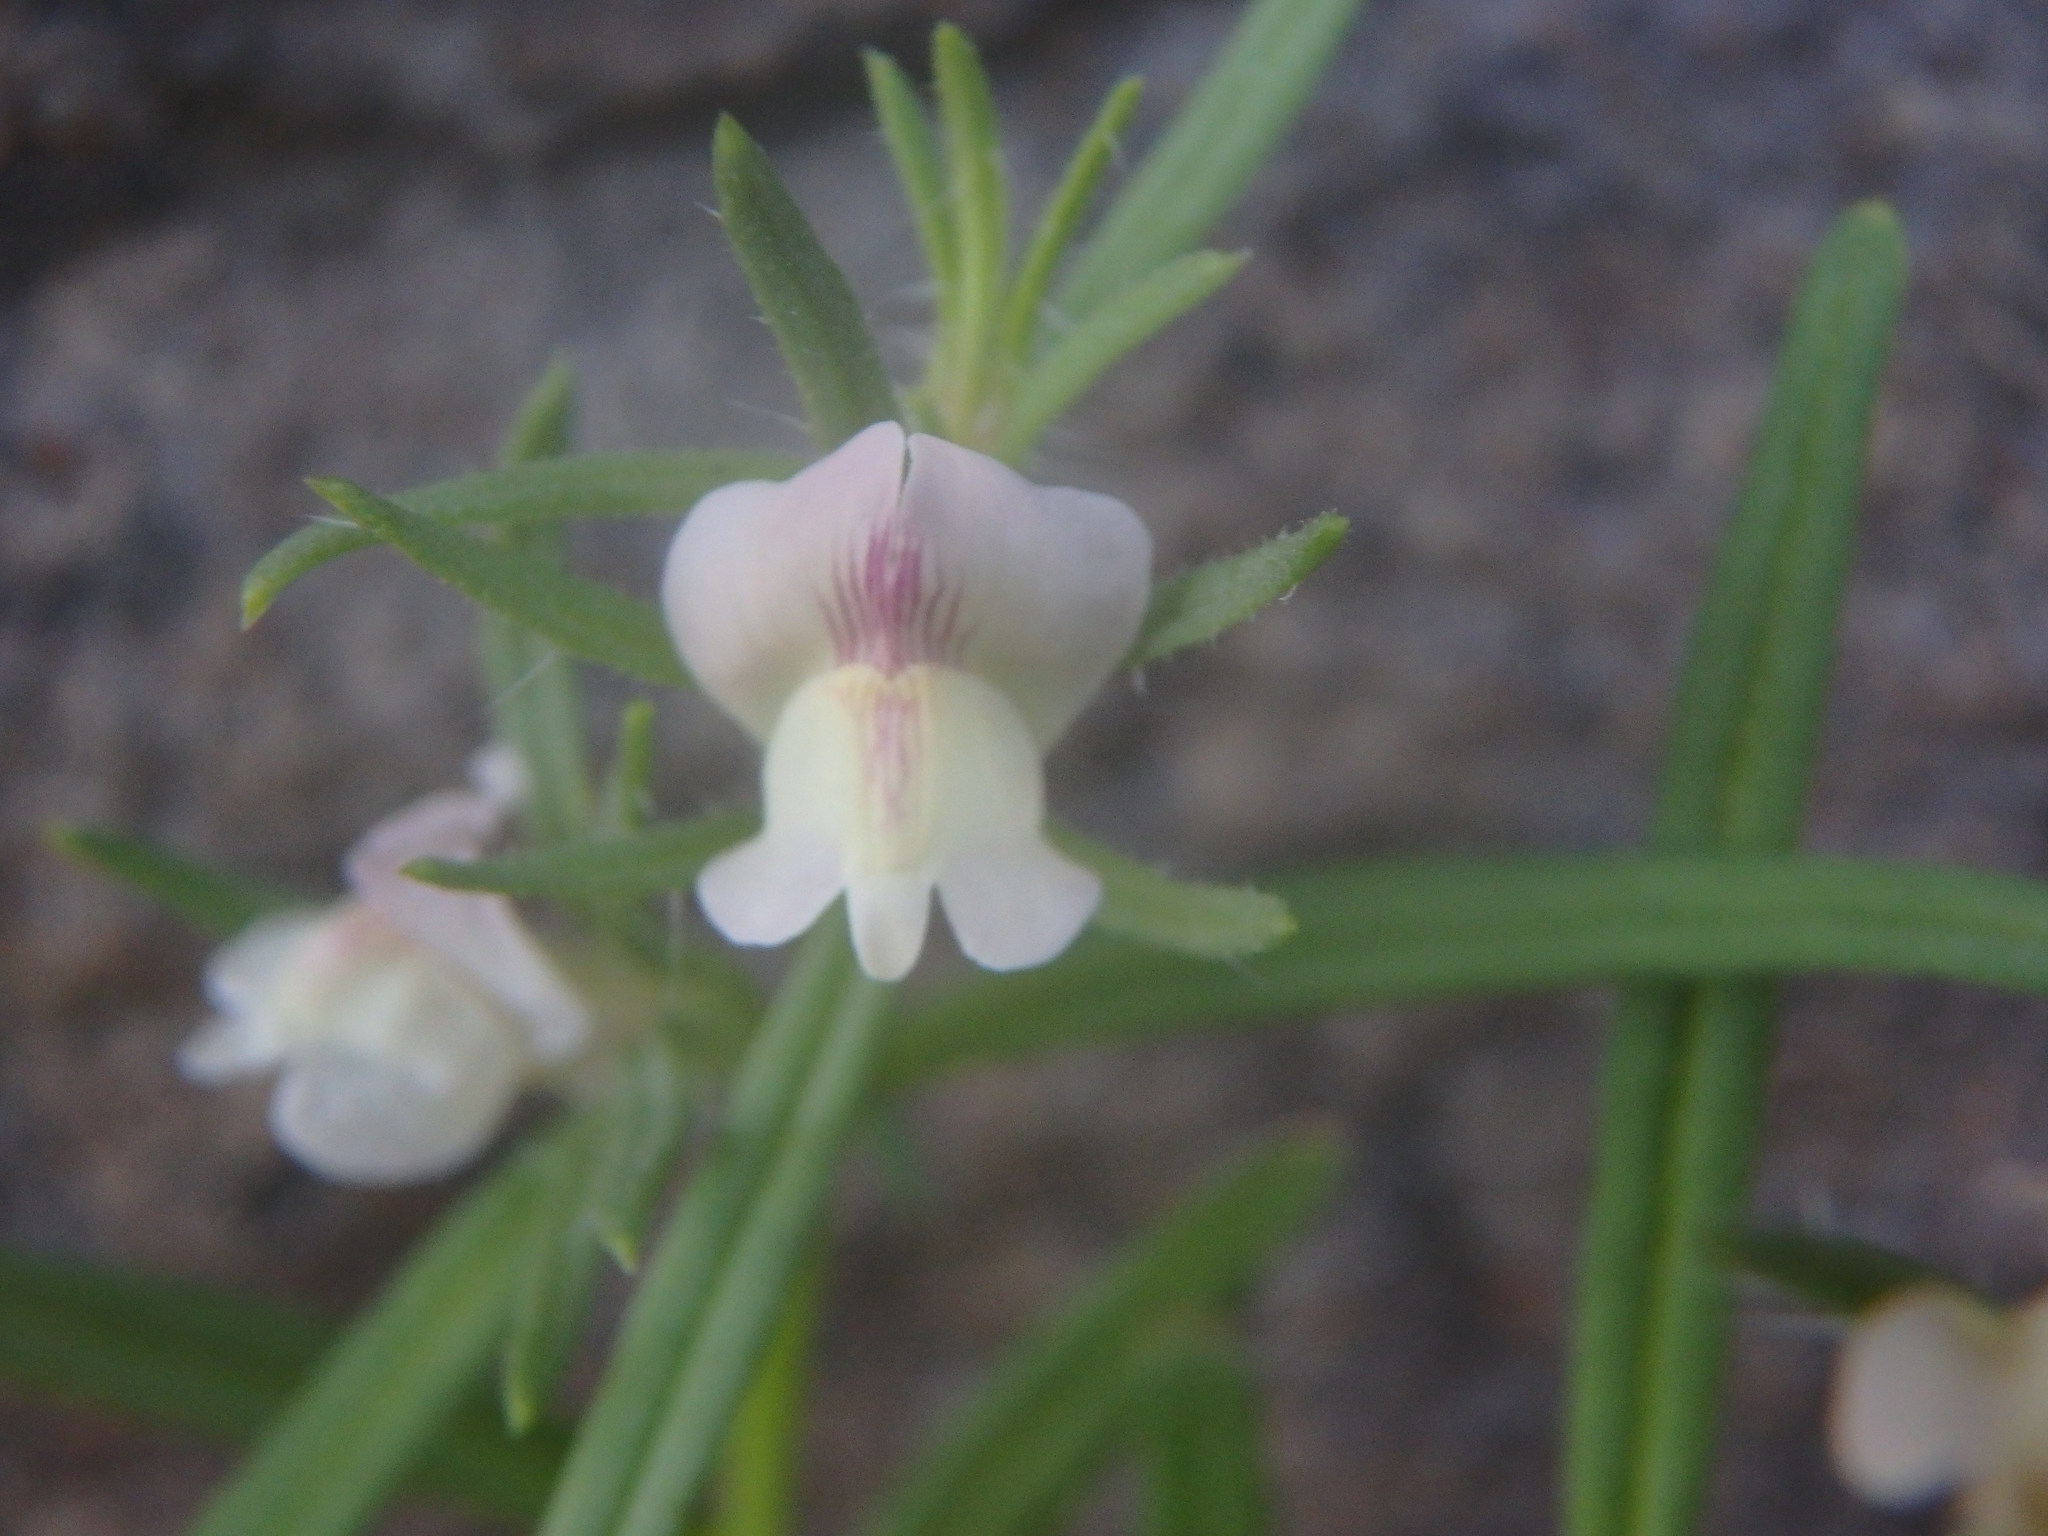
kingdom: Plantae
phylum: Tracheophyta
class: Magnoliopsida
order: Lamiales
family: Plantaginaceae
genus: Misopates
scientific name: Misopates orontium
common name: Weasel's-snout
